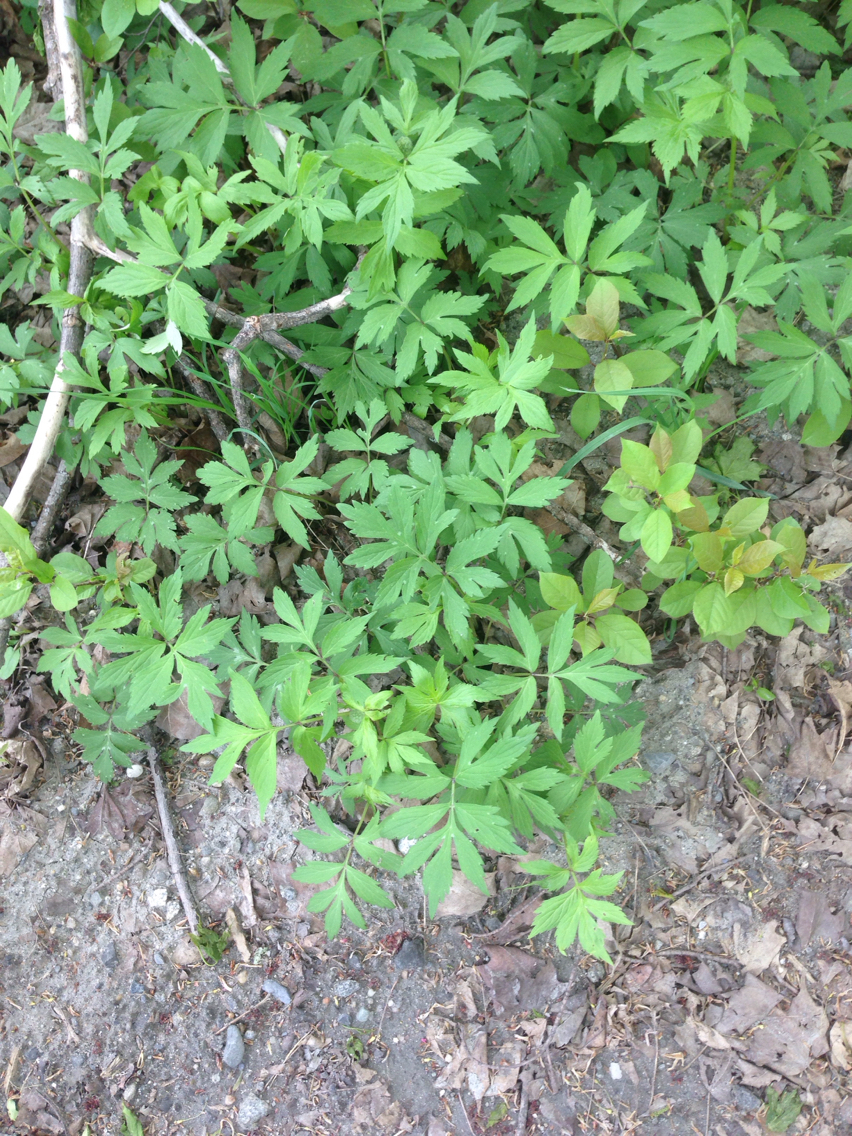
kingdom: Plantae
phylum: Tracheophyta
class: Magnoliopsida
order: Boraginales
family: Hydrophyllaceae
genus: Hydrophyllum
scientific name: Hydrophyllum virginianum
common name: Virginia waterleaf
